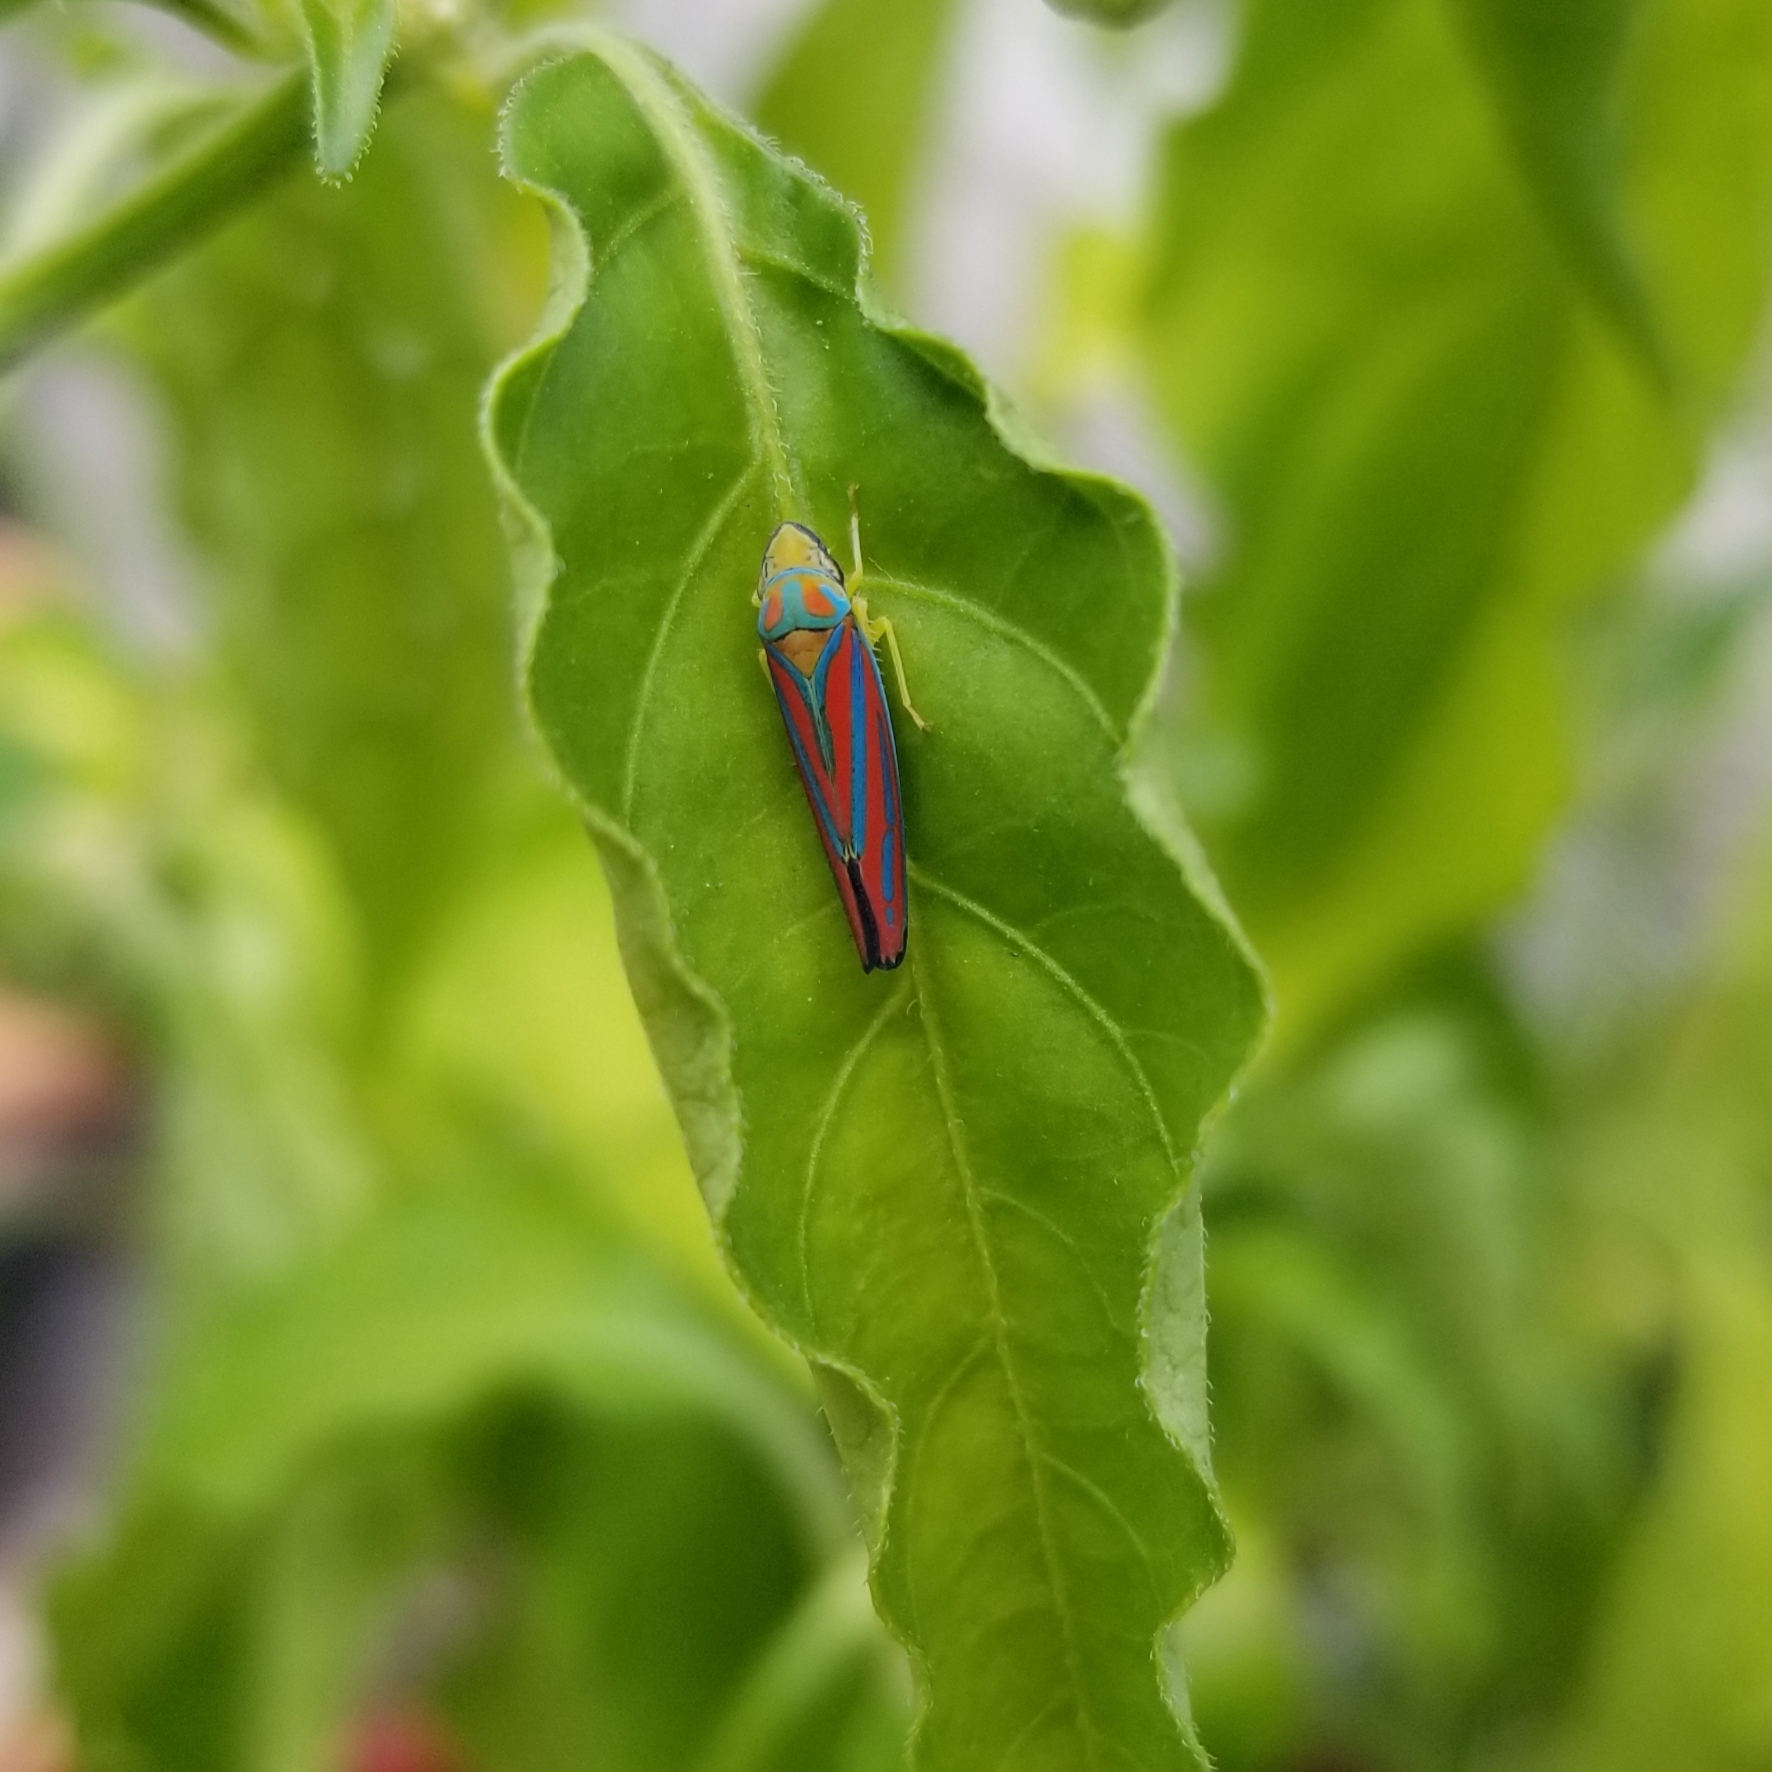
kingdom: Animalia
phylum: Arthropoda
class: Insecta
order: Hemiptera
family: Cicadellidae
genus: Graphocephala
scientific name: Graphocephala coccinea
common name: Candy-striped leafhopper
